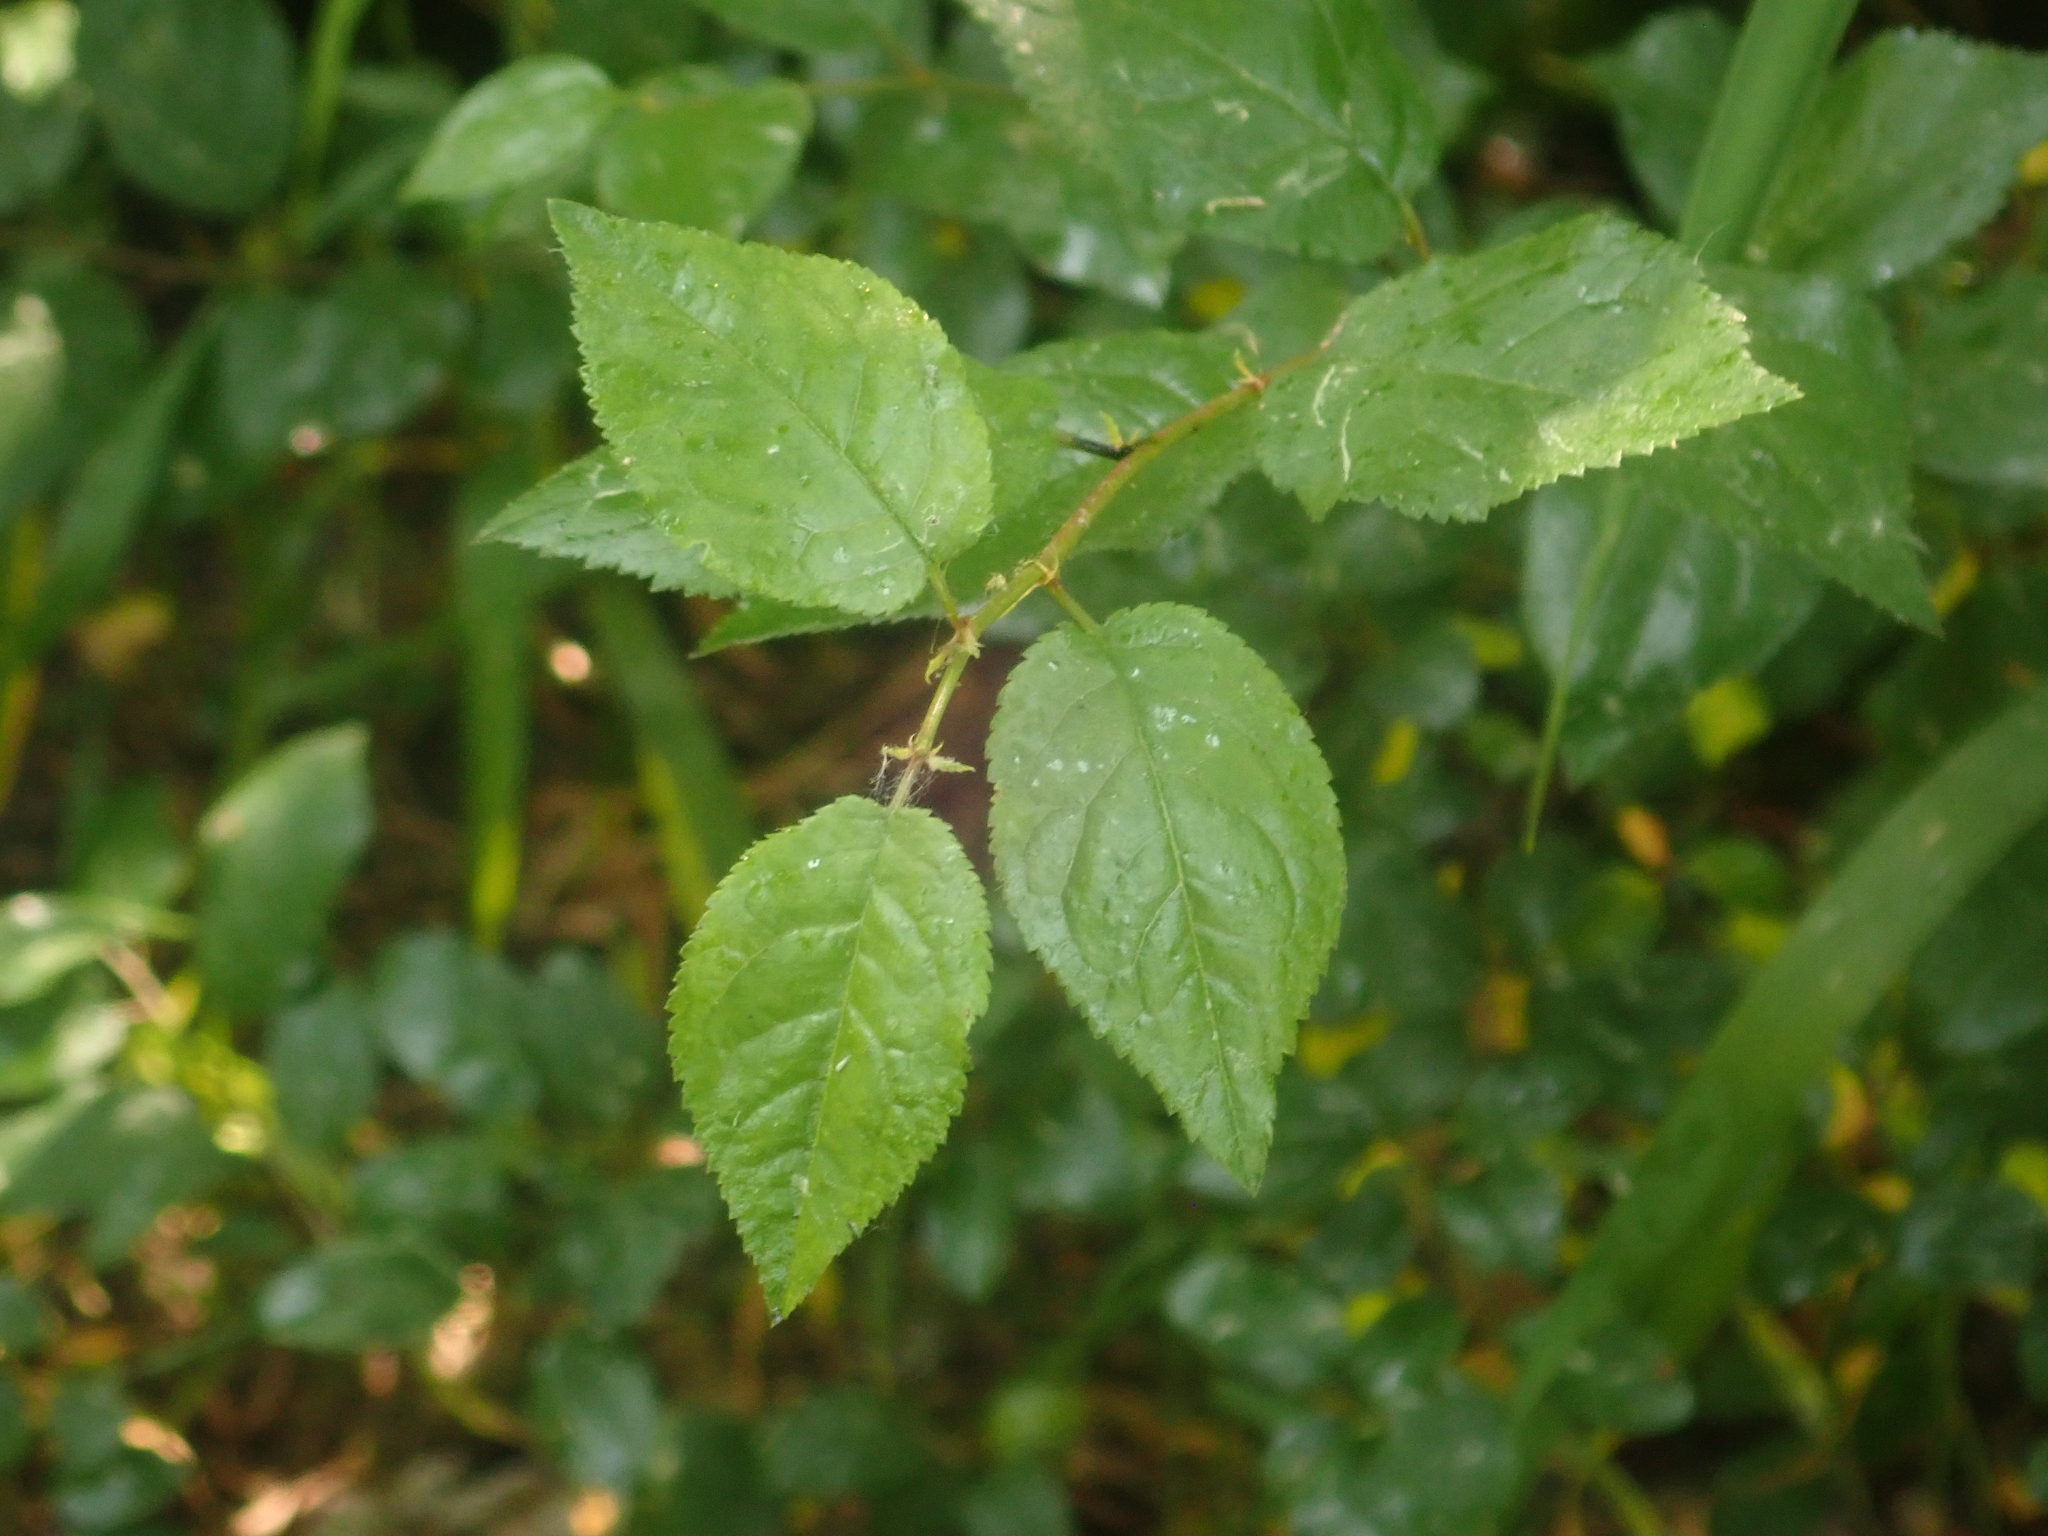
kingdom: Plantae
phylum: Tracheophyta
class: Magnoliopsida
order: Rosales
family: Rosaceae
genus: Prunus
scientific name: Prunus cerasifera
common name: Cherry plum
